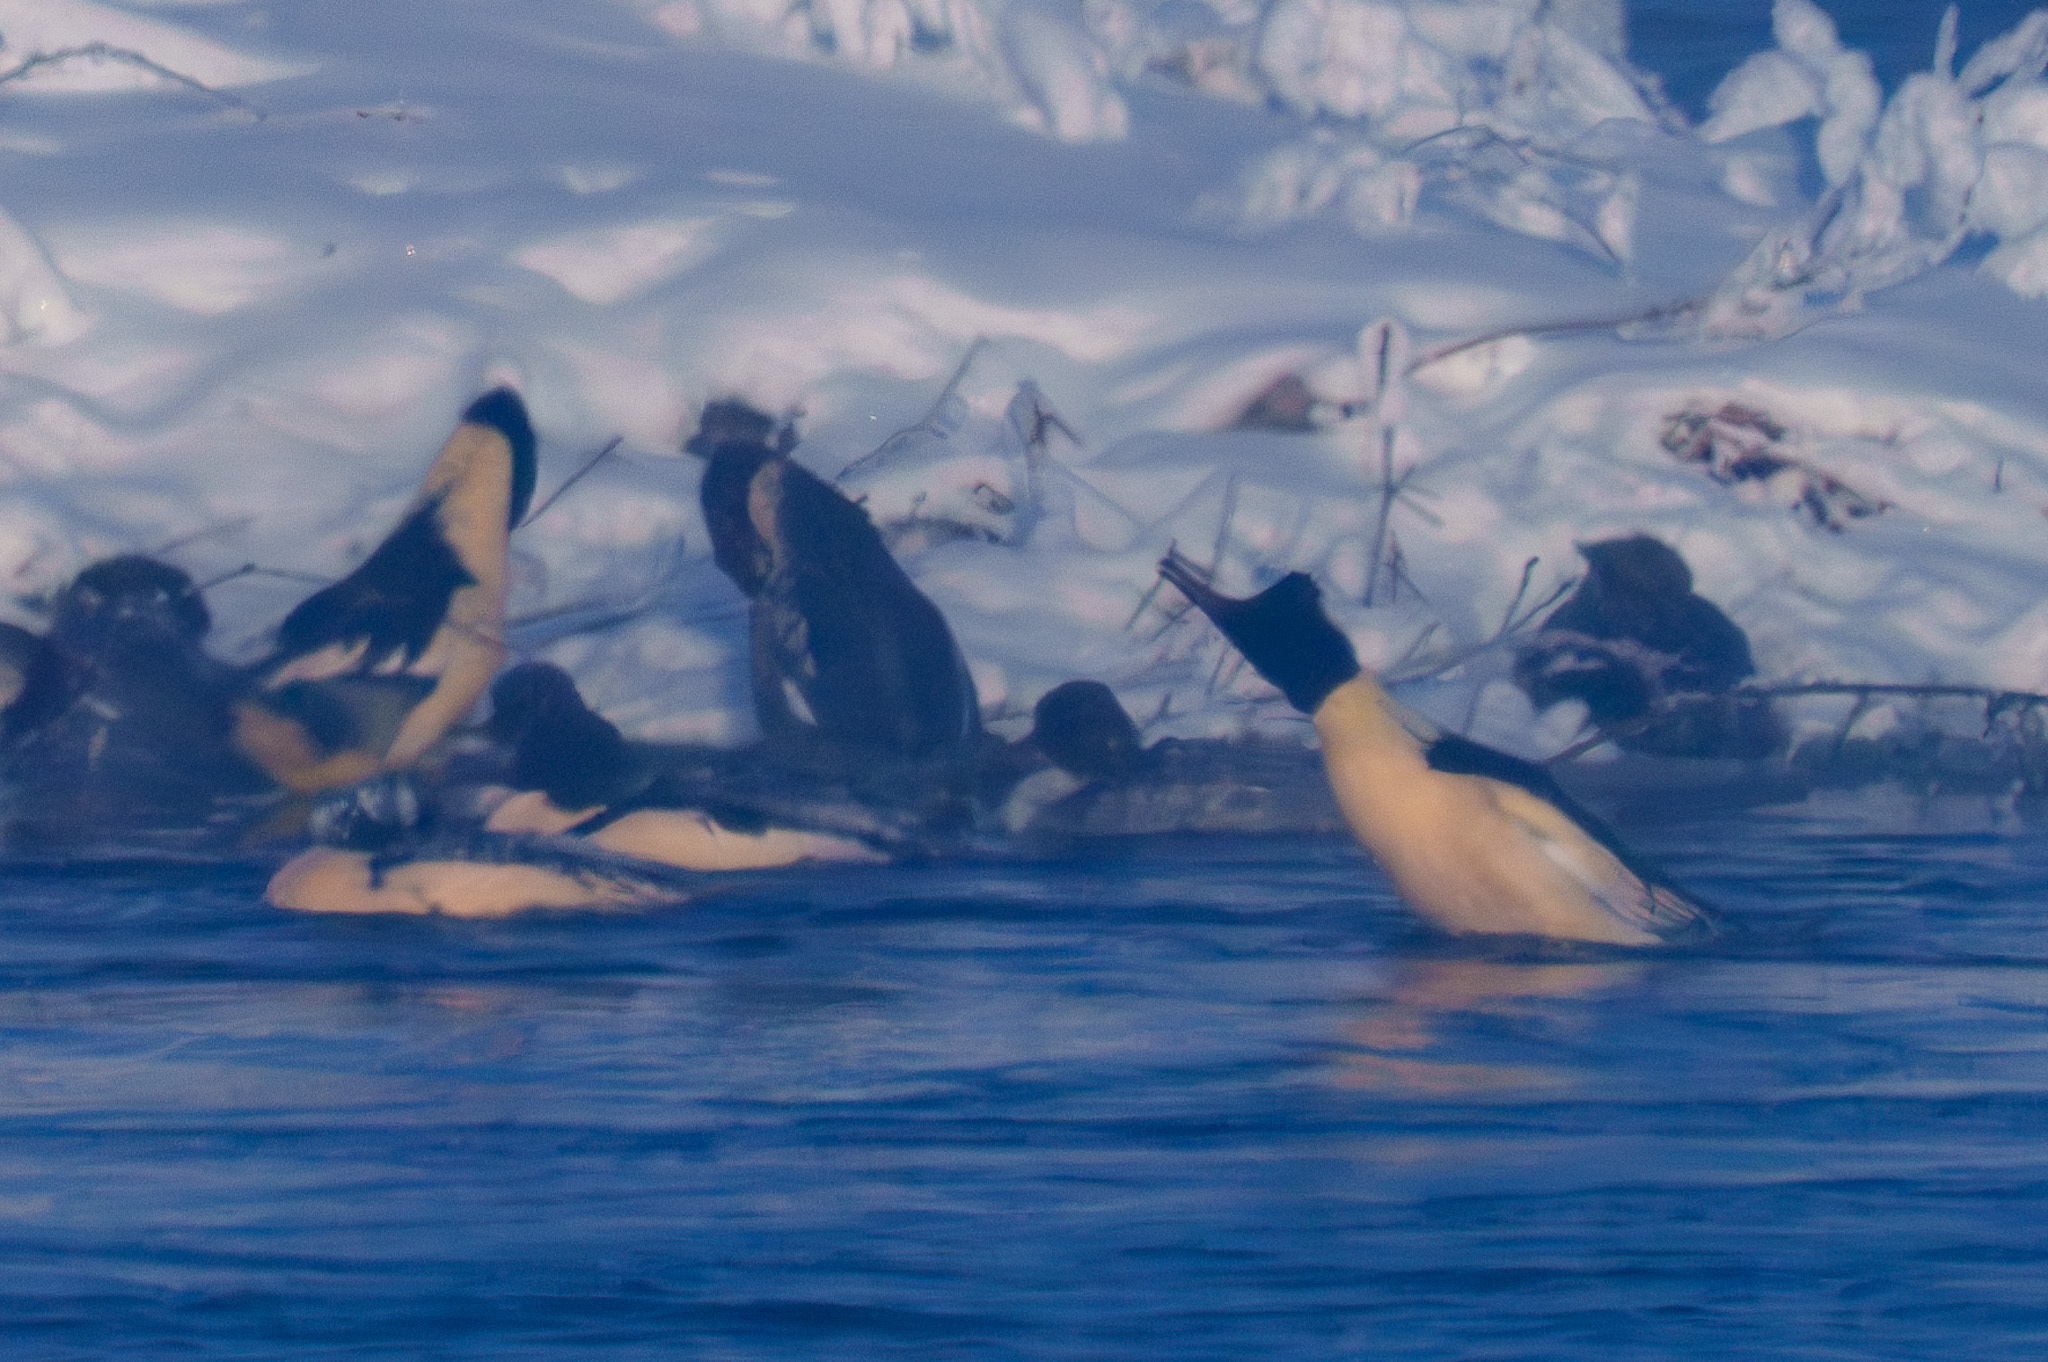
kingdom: Animalia
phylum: Chordata
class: Aves
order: Anseriformes
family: Anatidae
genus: Mergus
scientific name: Mergus merganser
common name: Common merganser
